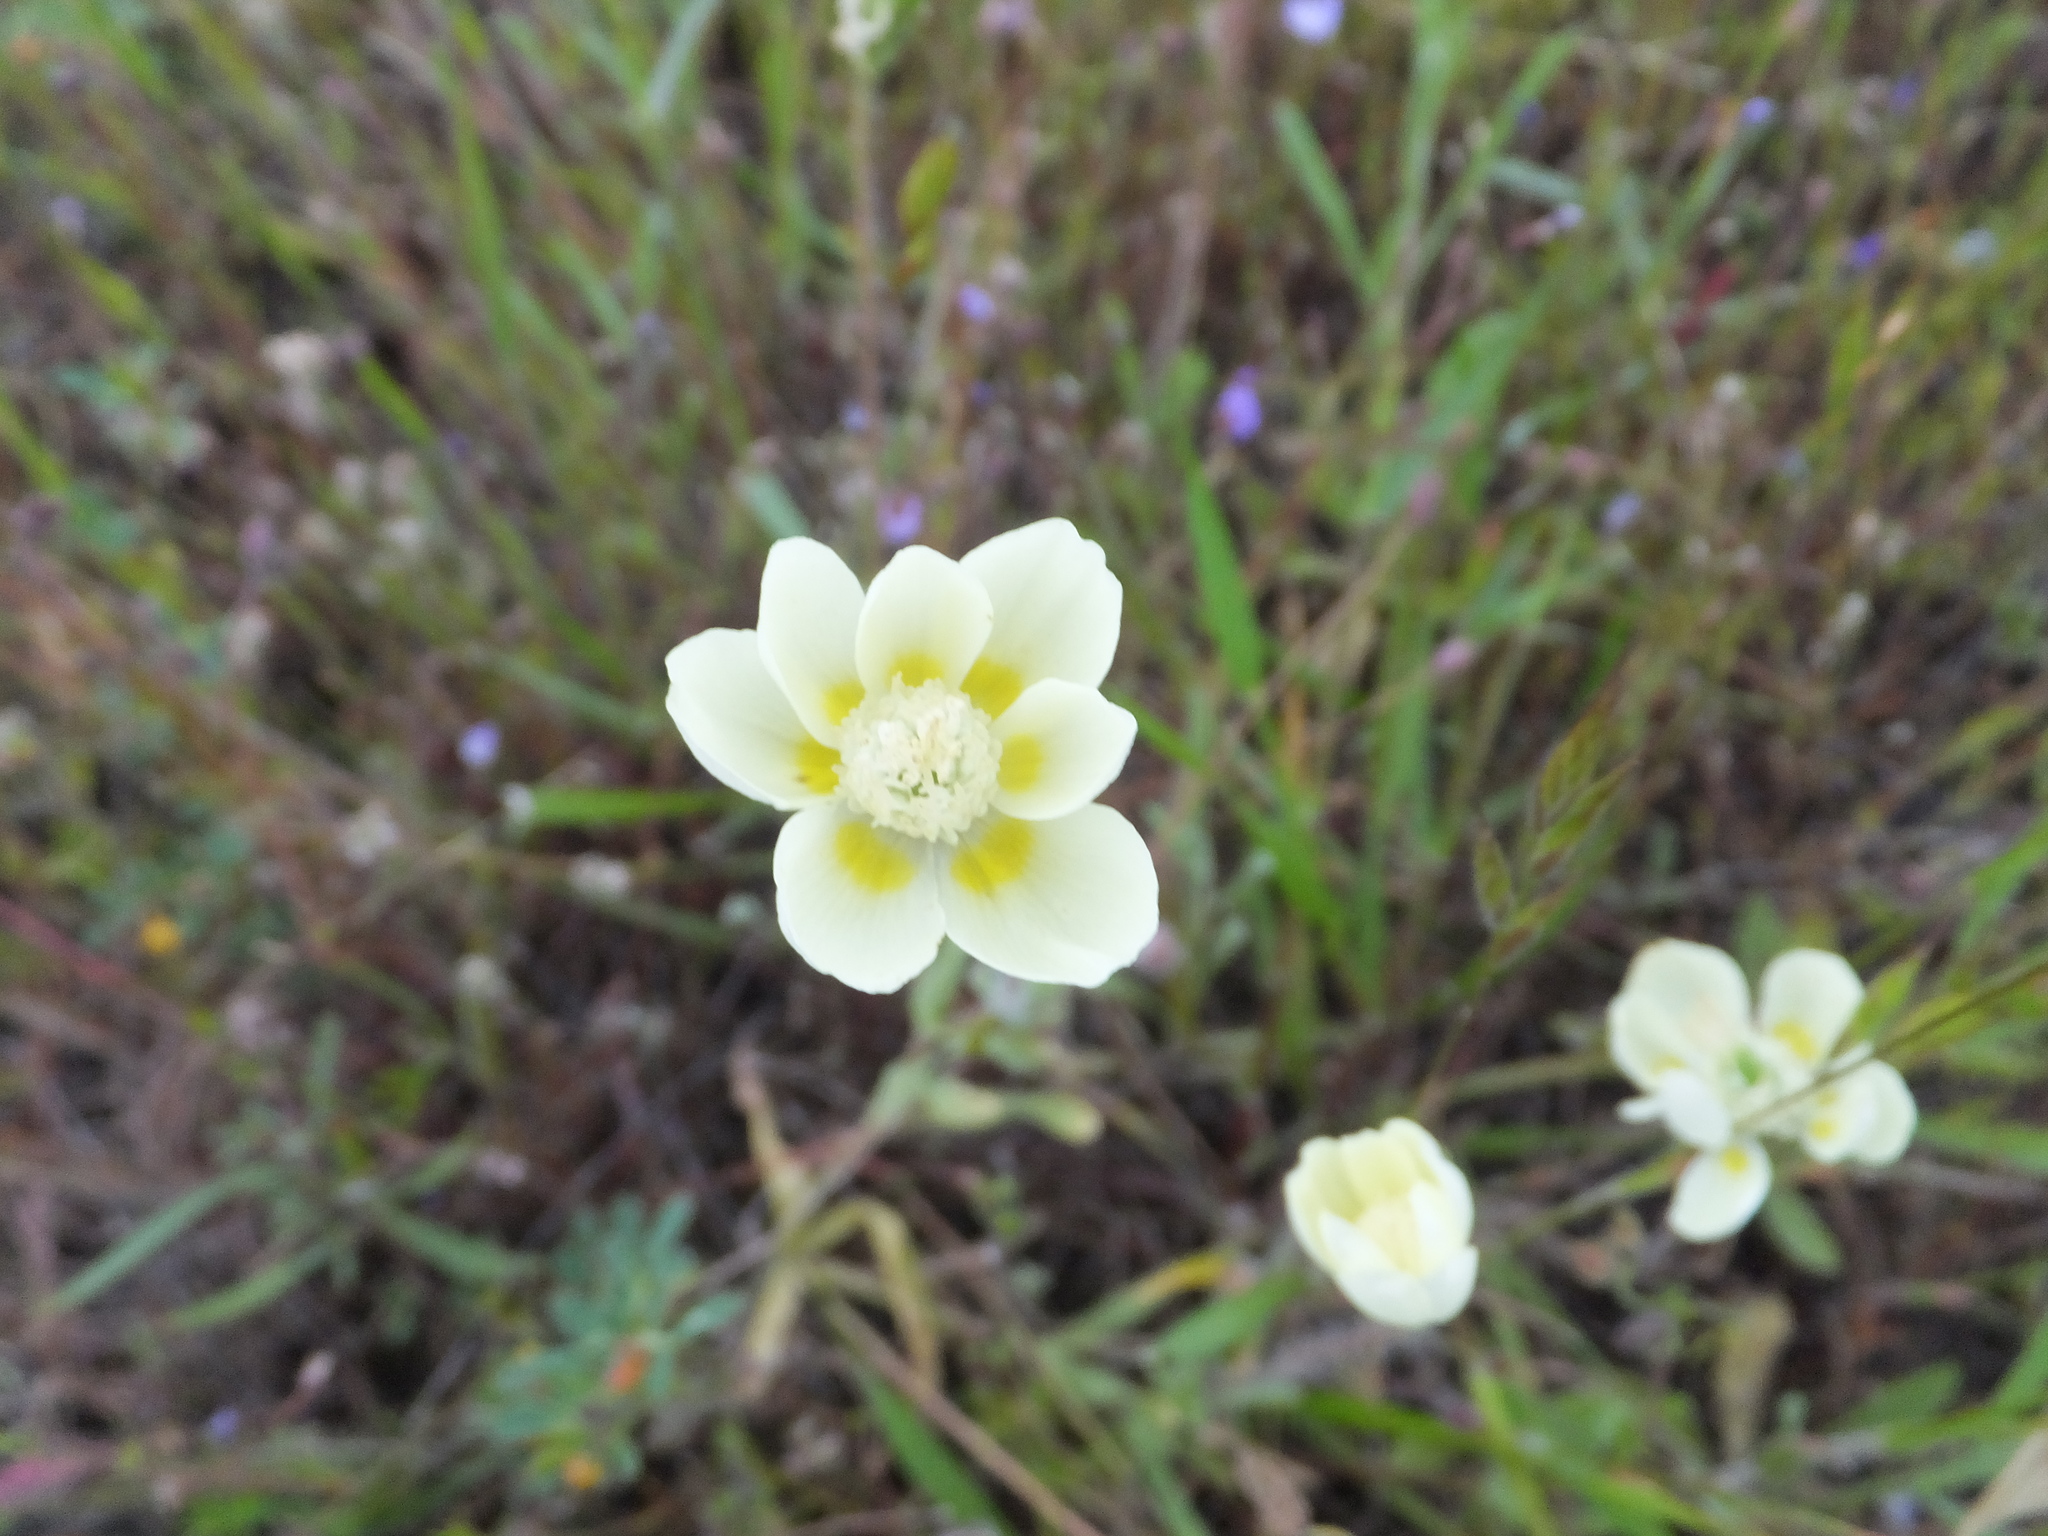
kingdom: Plantae
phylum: Tracheophyta
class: Magnoliopsida
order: Ranunculales
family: Papaveraceae
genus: Platystemon
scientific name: Platystemon californicus
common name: Cream-cups
